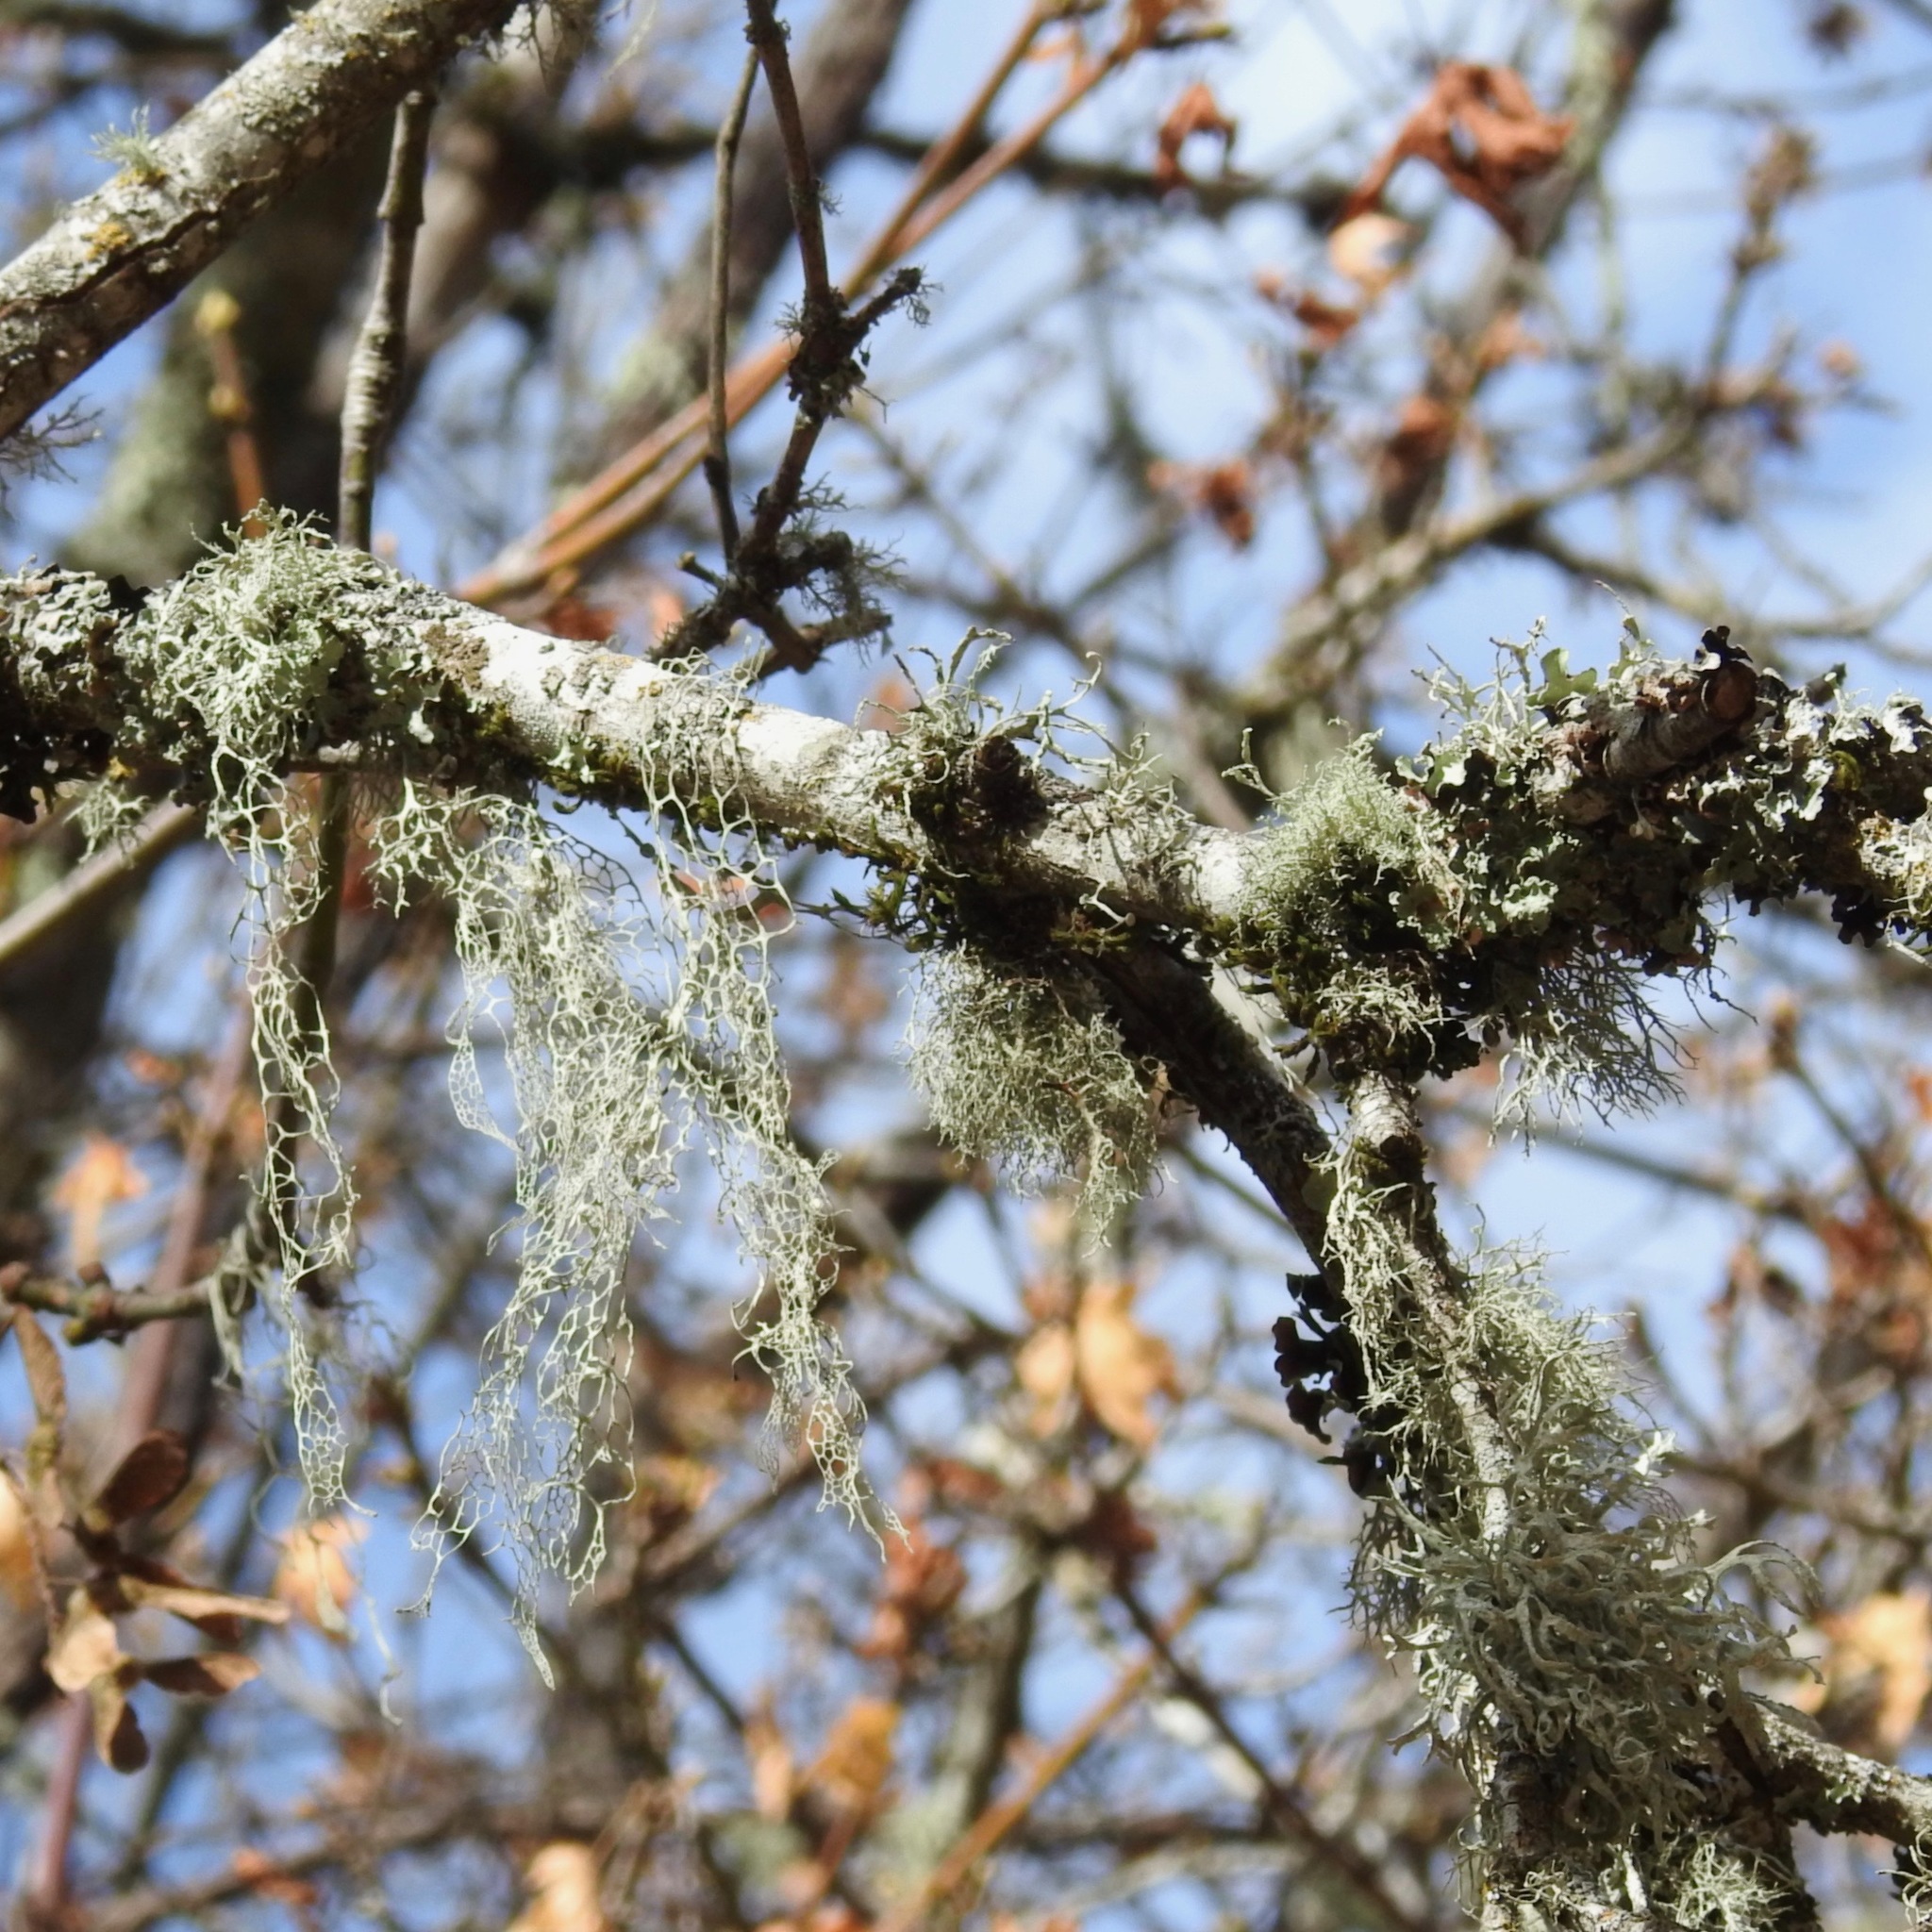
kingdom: Fungi
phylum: Ascomycota
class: Lecanoromycetes
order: Lecanorales
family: Ramalinaceae
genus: Ramalina
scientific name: Ramalina menziesii
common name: Lace lichen
